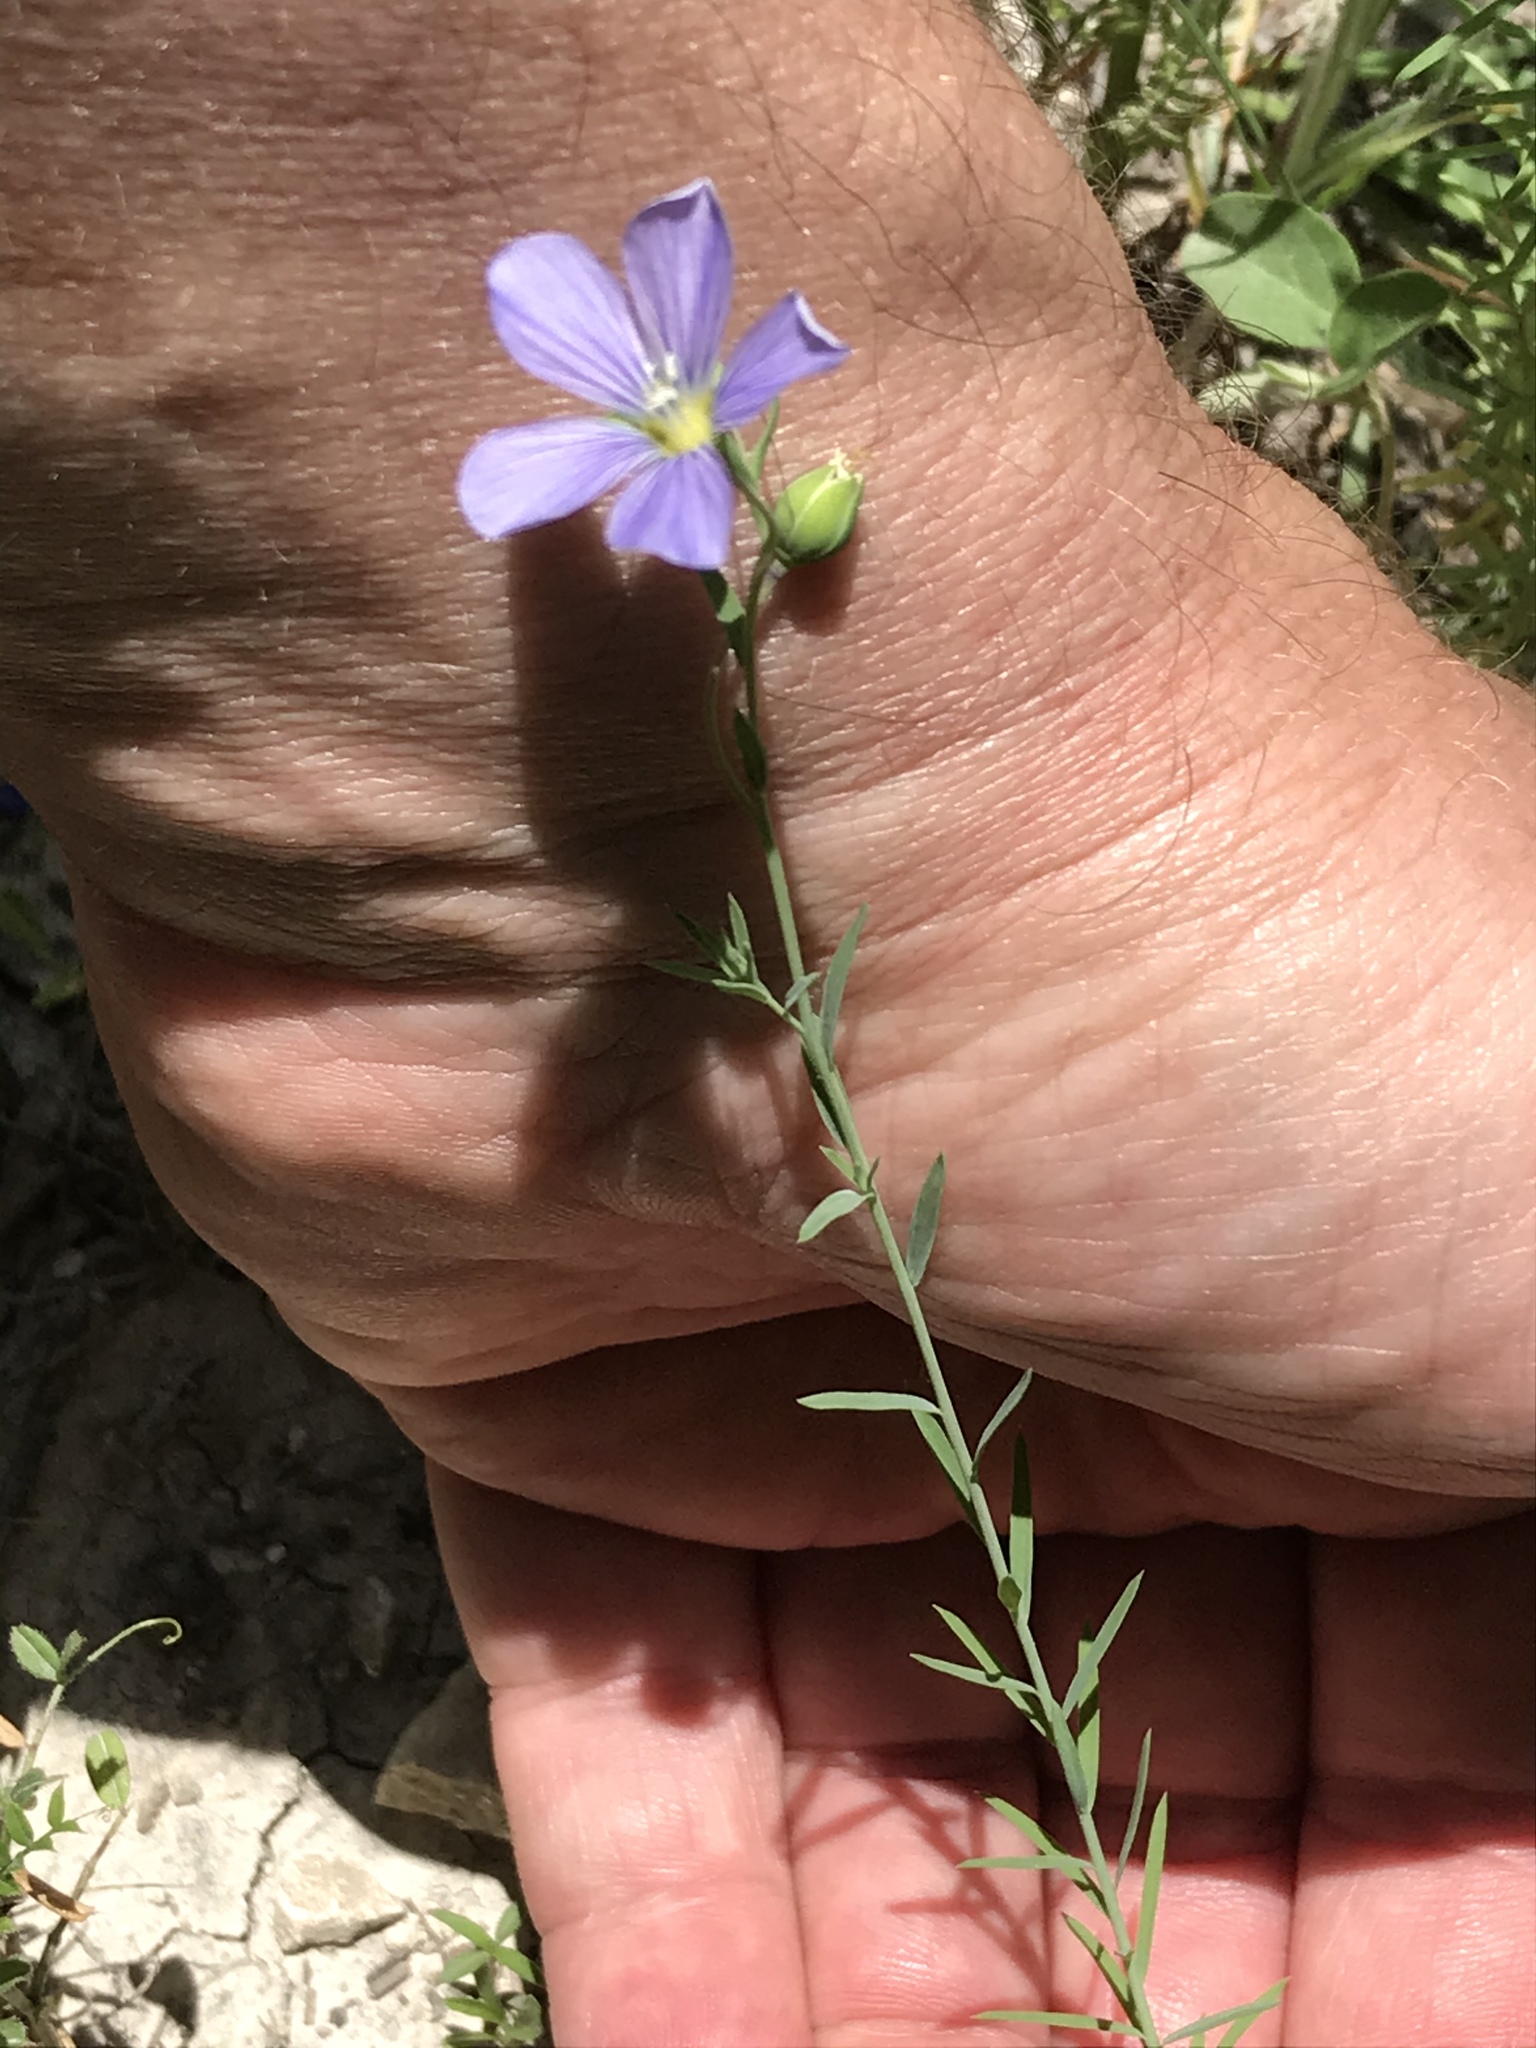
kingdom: Plantae
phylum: Tracheophyta
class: Magnoliopsida
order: Malpighiales
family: Linaceae
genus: Linum
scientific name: Linum pratense
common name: Norton's flax
